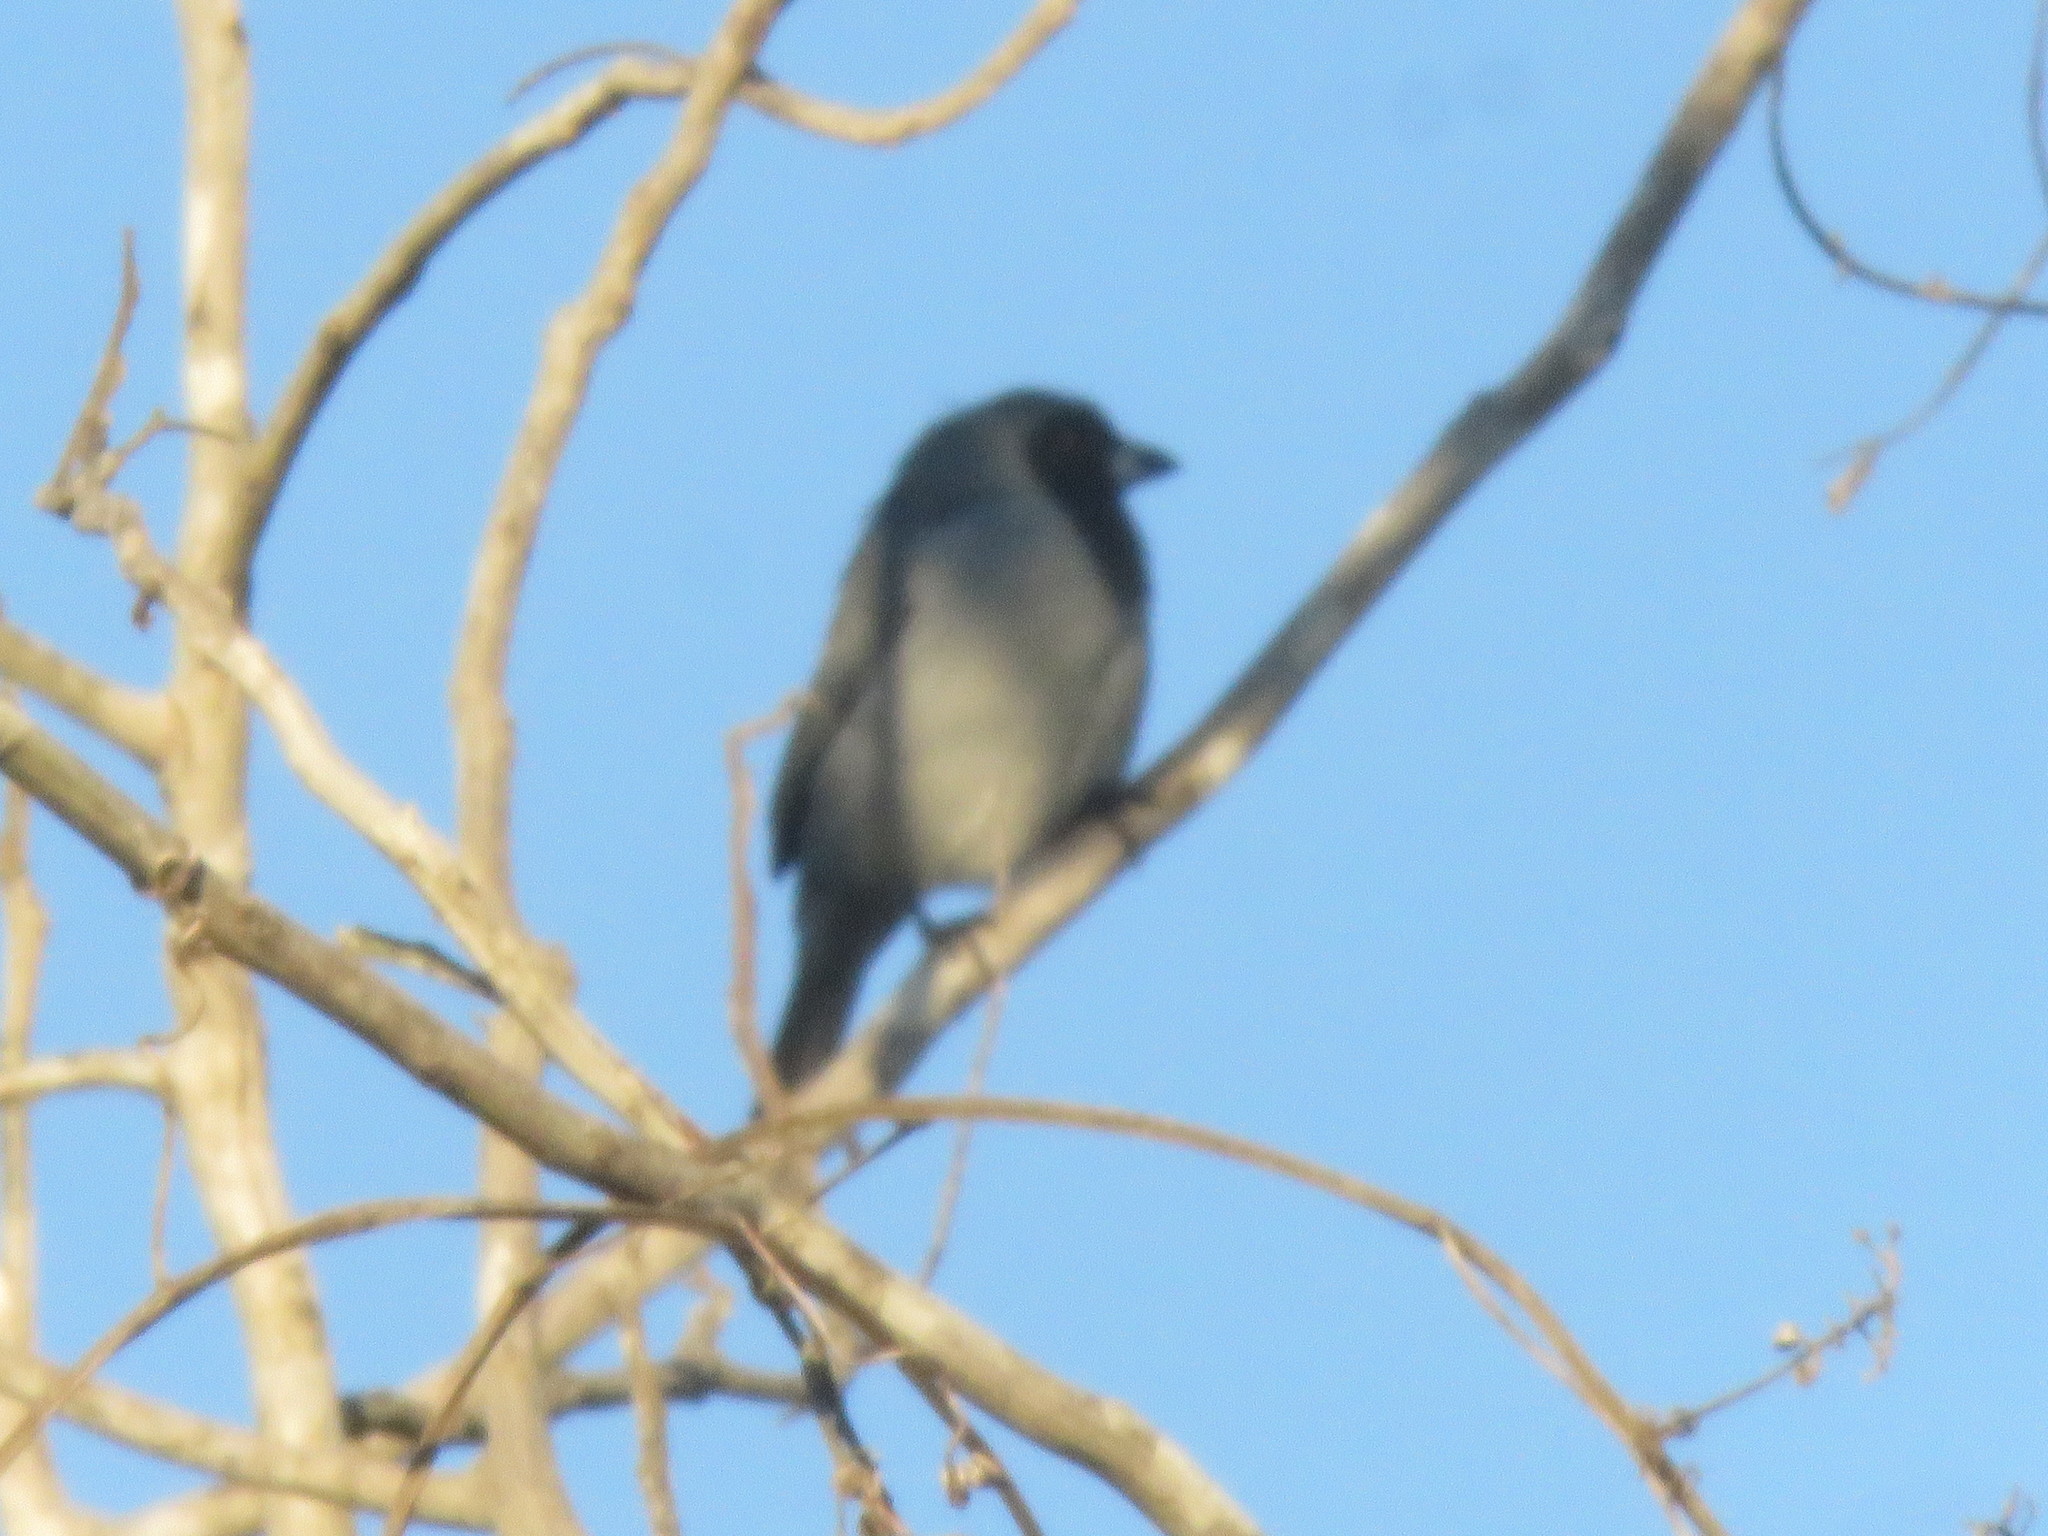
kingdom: Animalia
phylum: Chordata
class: Aves
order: Passeriformes
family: Thraupidae
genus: Schistochlamys
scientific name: Schistochlamys melanopis
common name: Black-faced tanager
